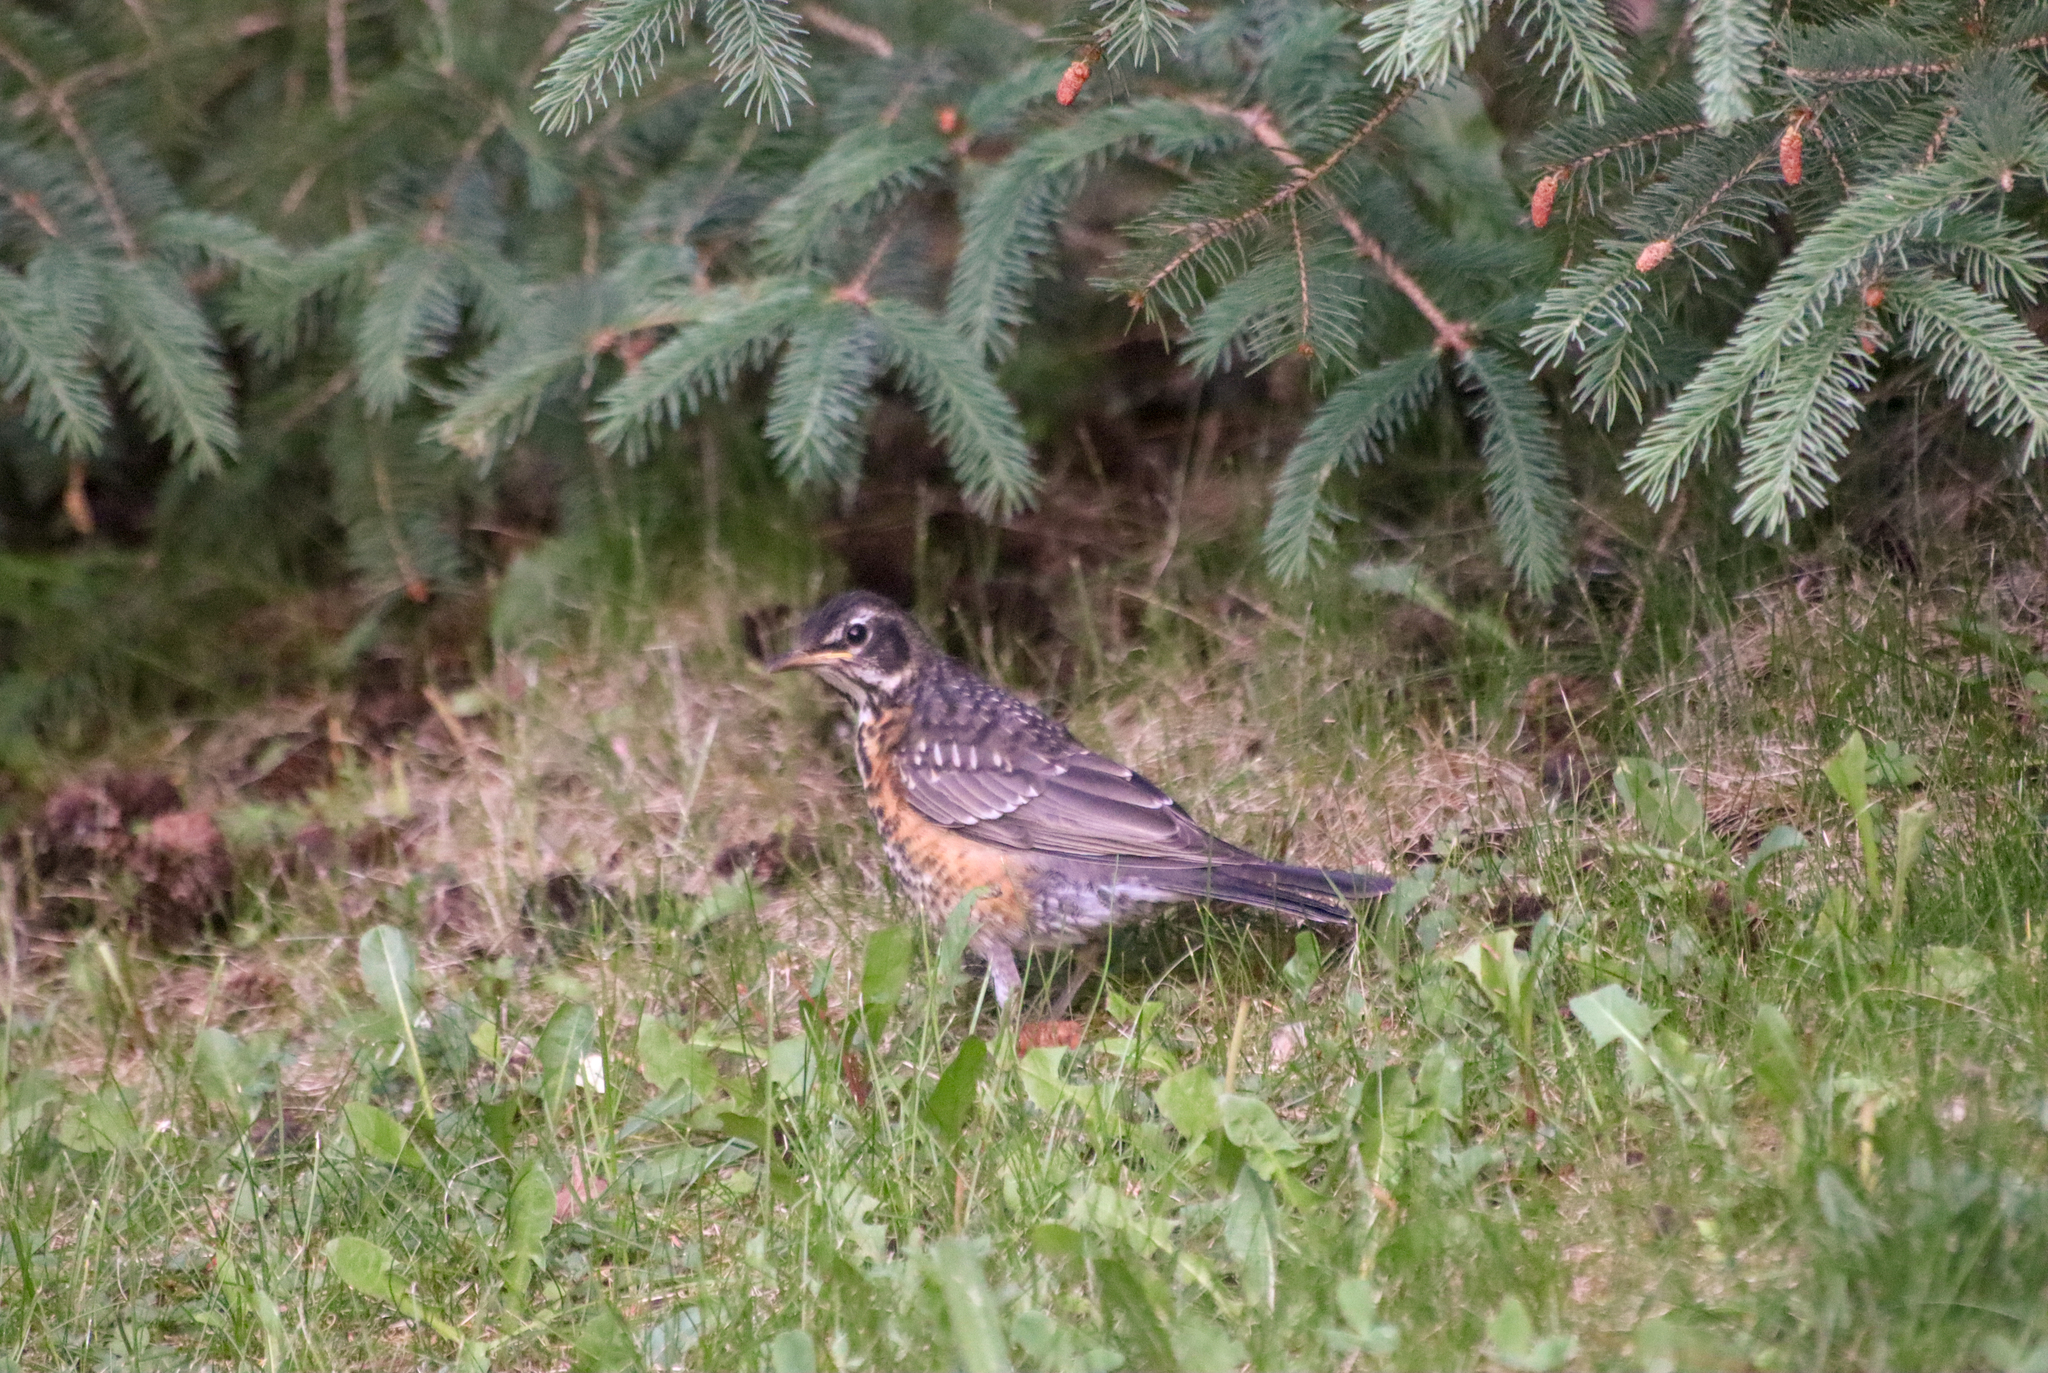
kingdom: Animalia
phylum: Chordata
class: Aves
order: Passeriformes
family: Turdidae
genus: Turdus
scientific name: Turdus migratorius
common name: American robin
